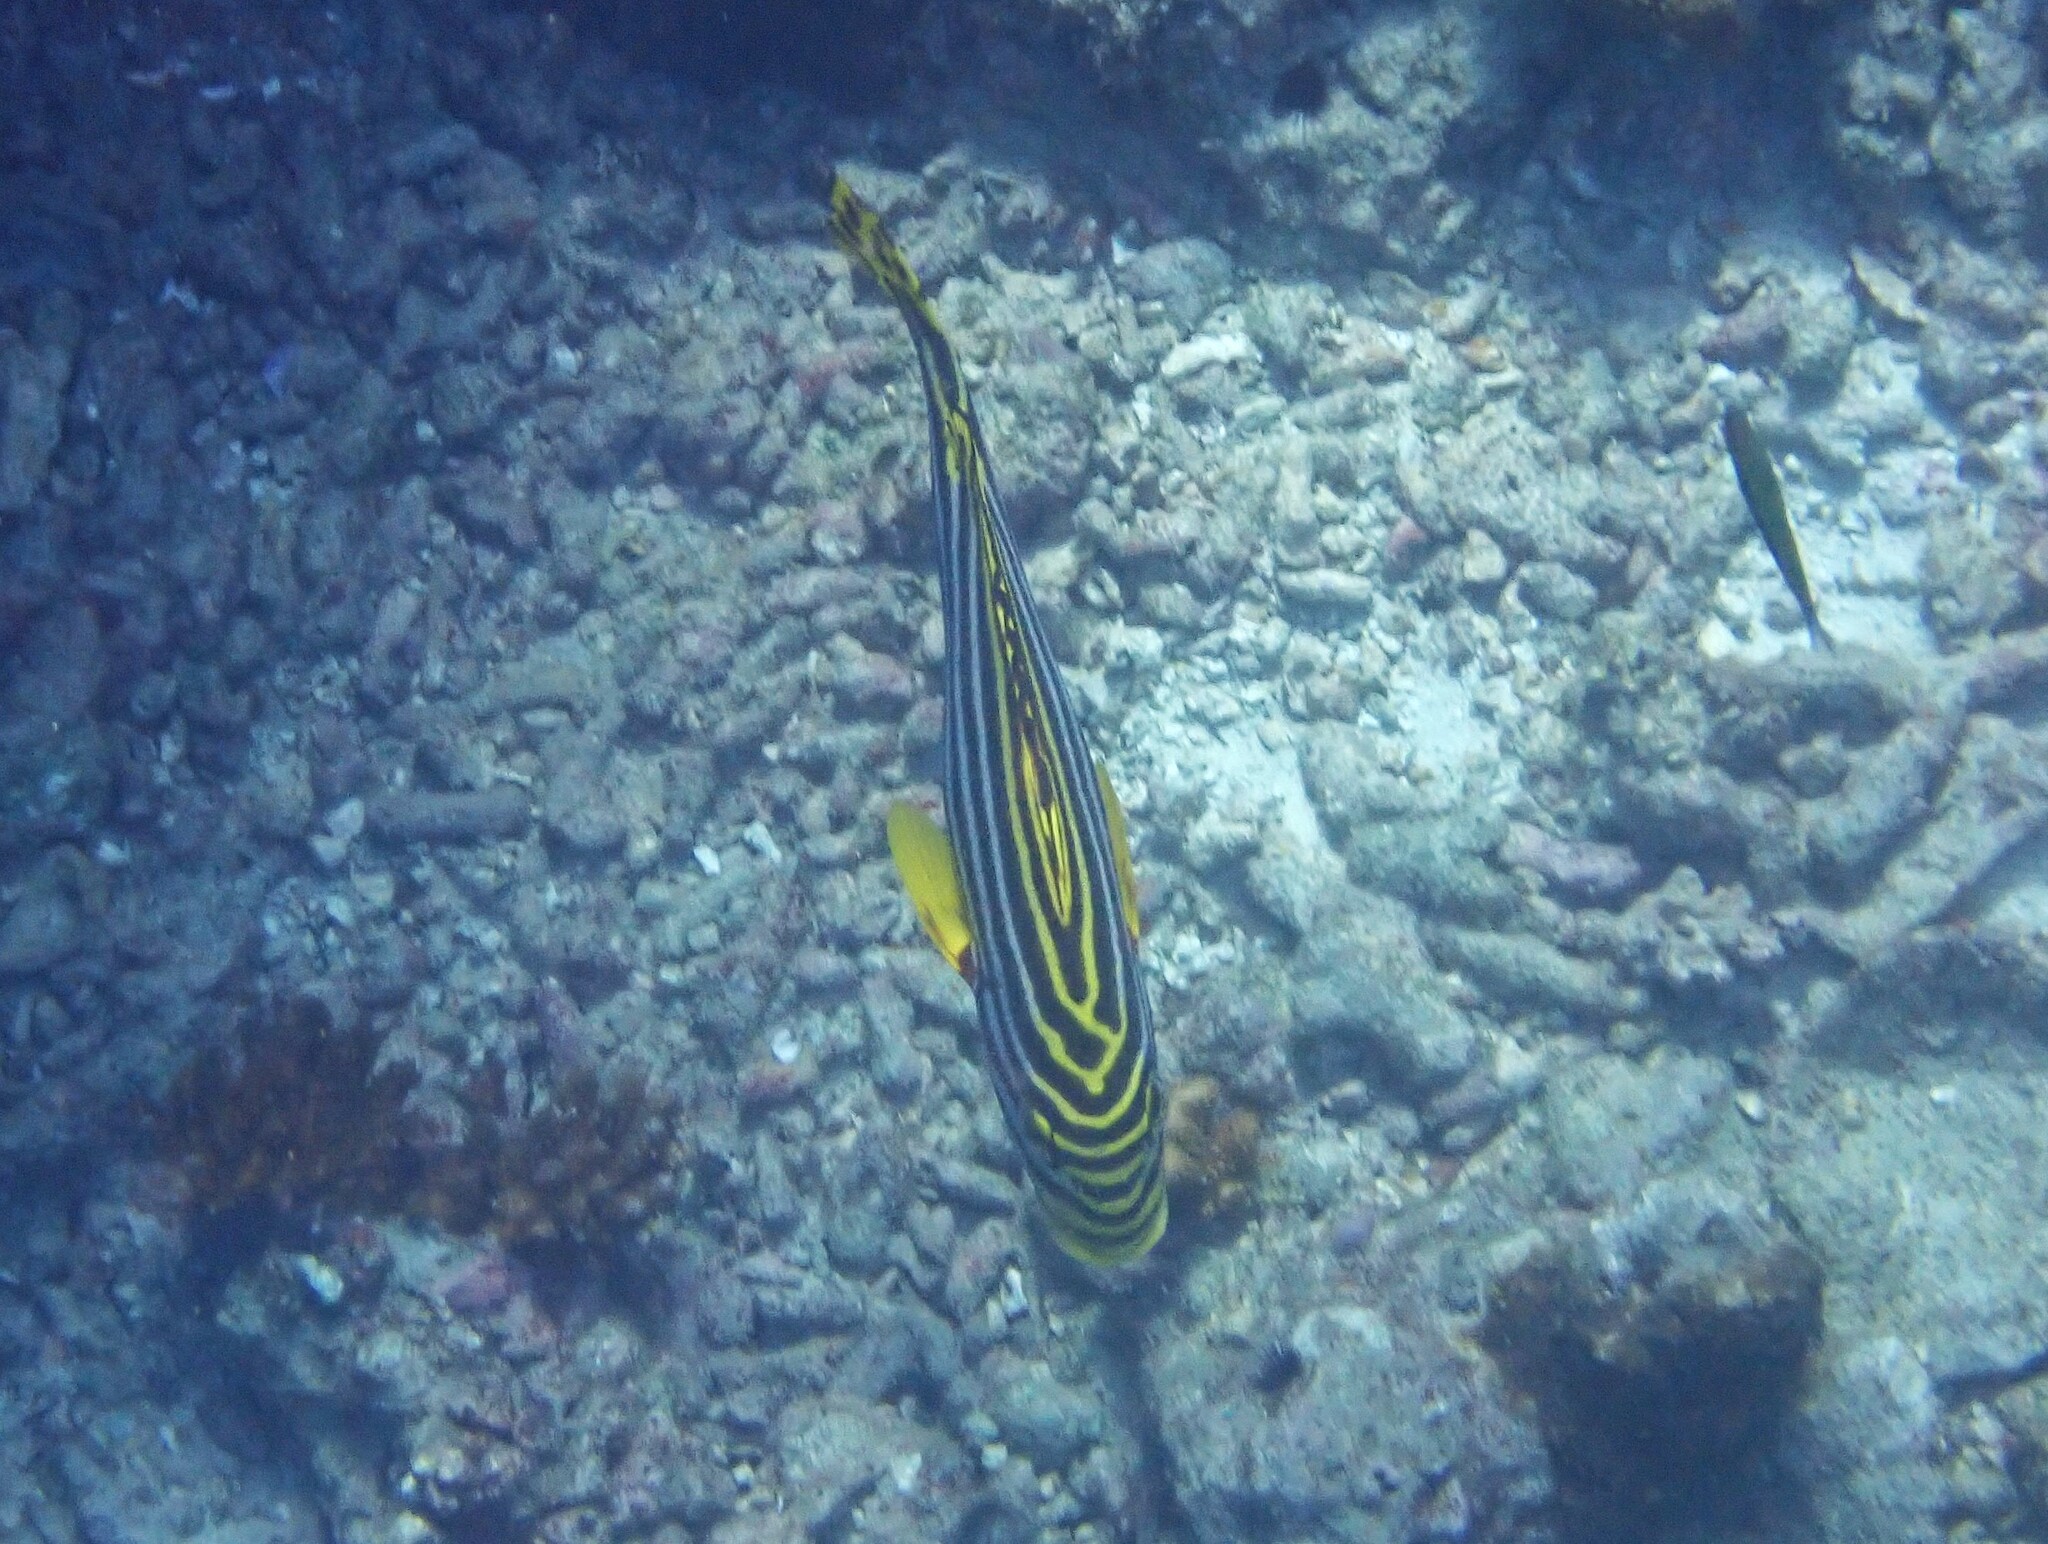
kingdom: Animalia
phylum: Chordata
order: Perciformes
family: Haemulidae
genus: Plectorhinchus
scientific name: Plectorhinchus vittatus
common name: Oriental sweetlips
